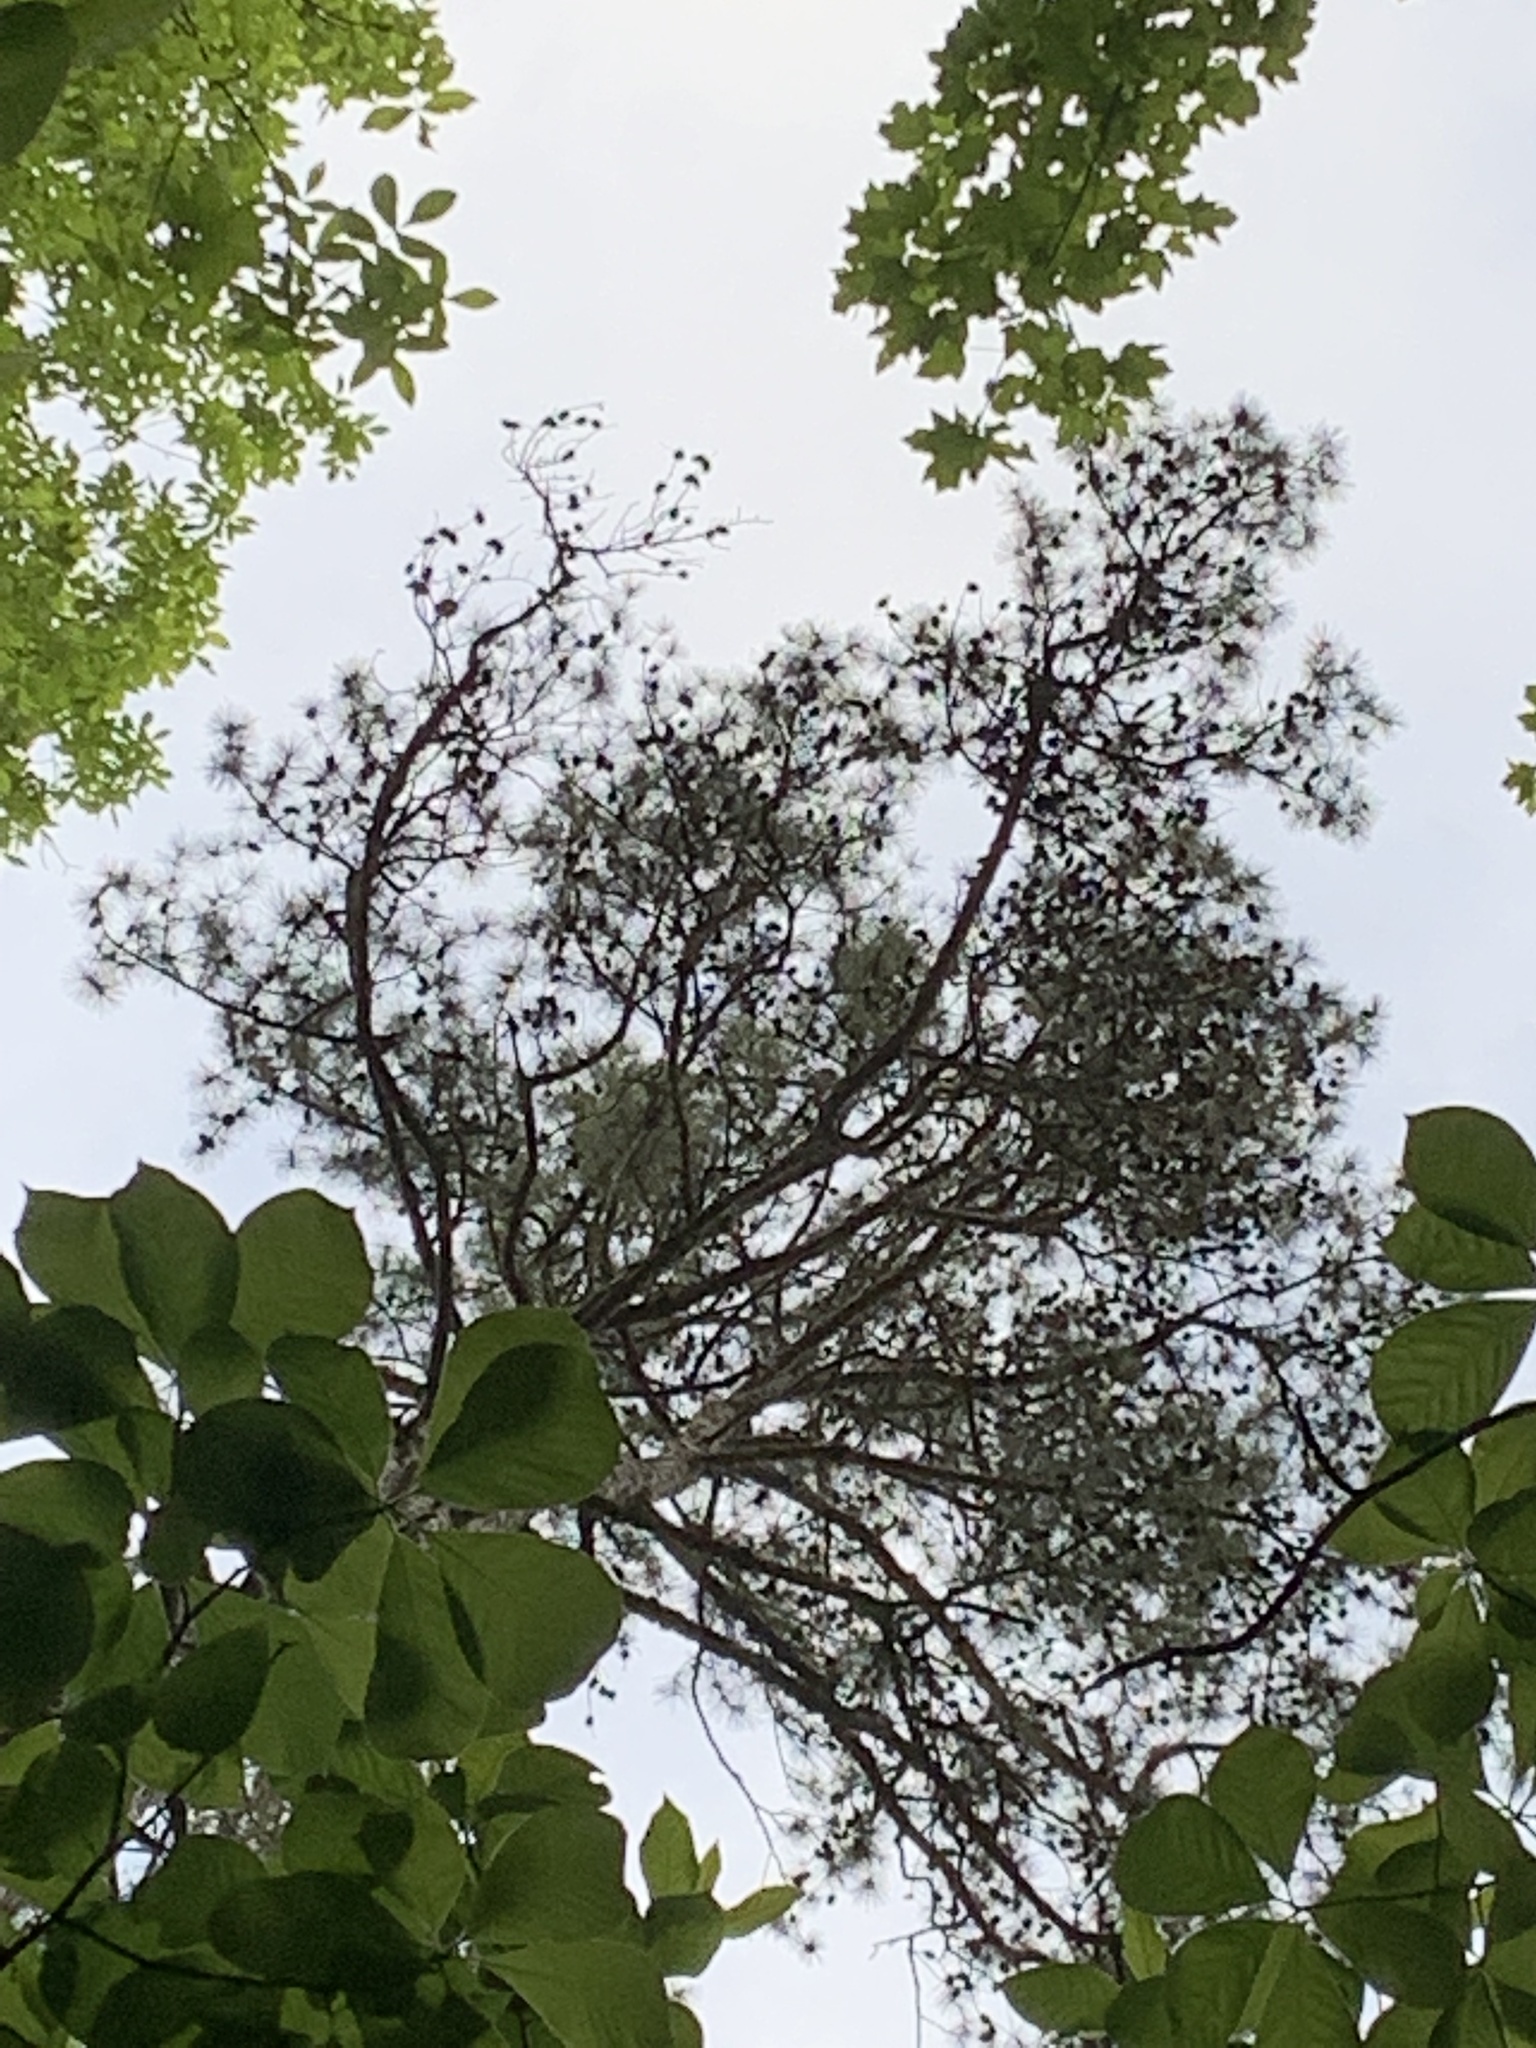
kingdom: Plantae
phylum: Tracheophyta
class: Pinopsida
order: Pinales
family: Pinaceae
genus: Pinus
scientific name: Pinus echinata
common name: Shortleaf pine
